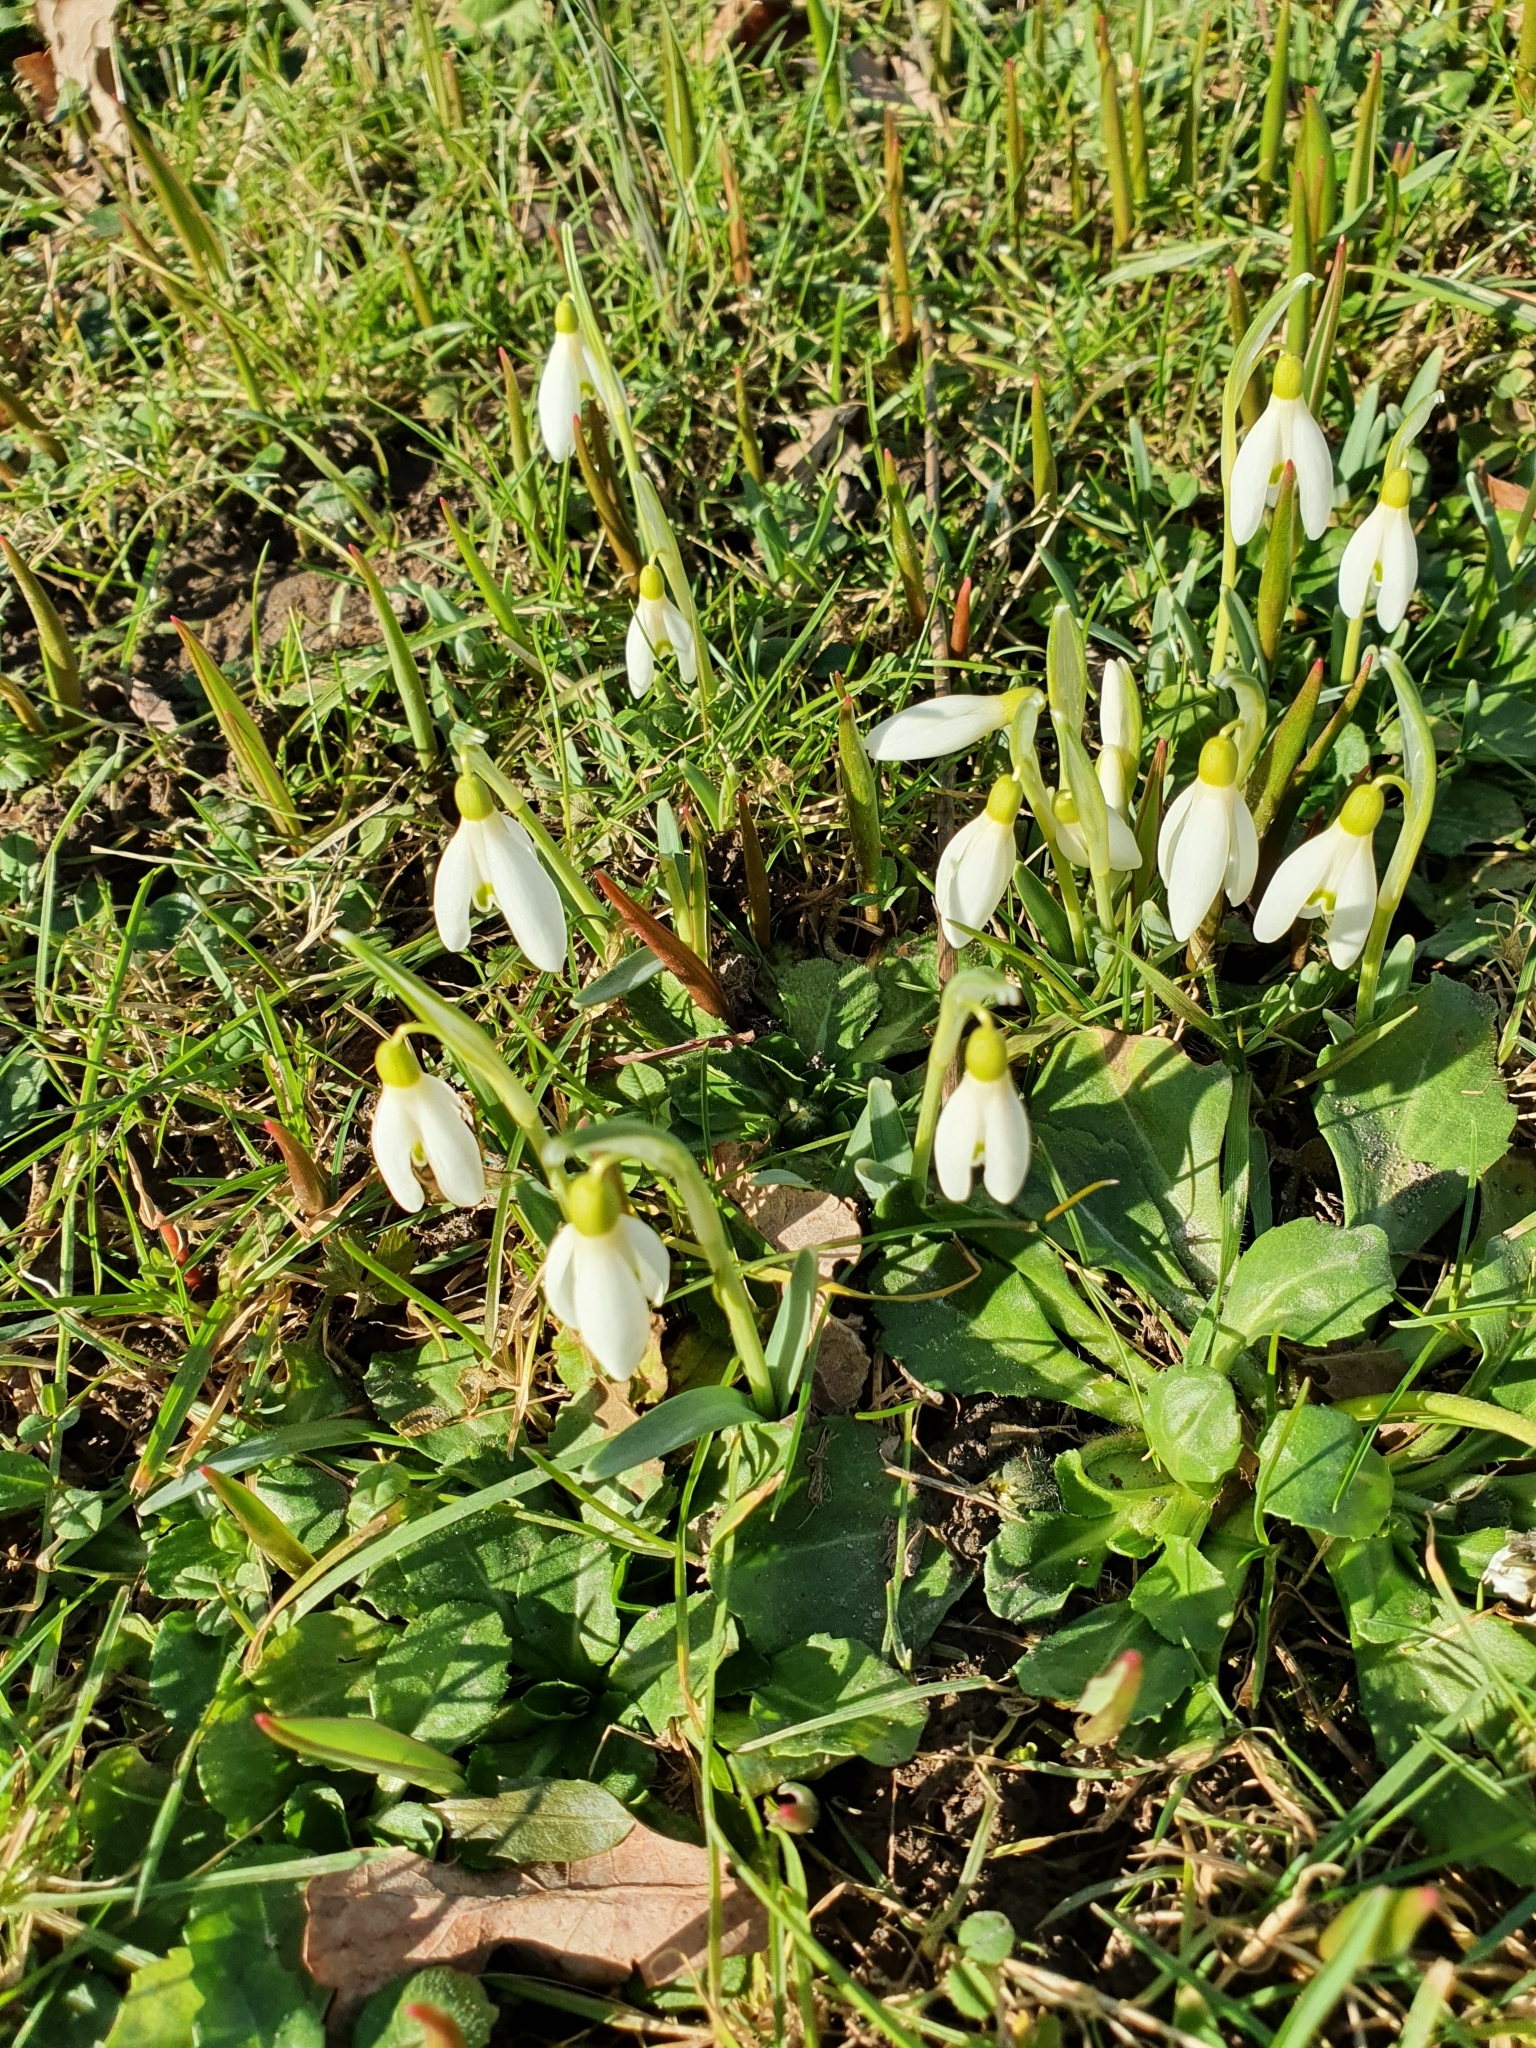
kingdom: Plantae
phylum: Tracheophyta
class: Liliopsida
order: Asparagales
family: Amaryllidaceae
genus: Galanthus
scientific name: Galanthus nivalis
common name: Snowdrop
